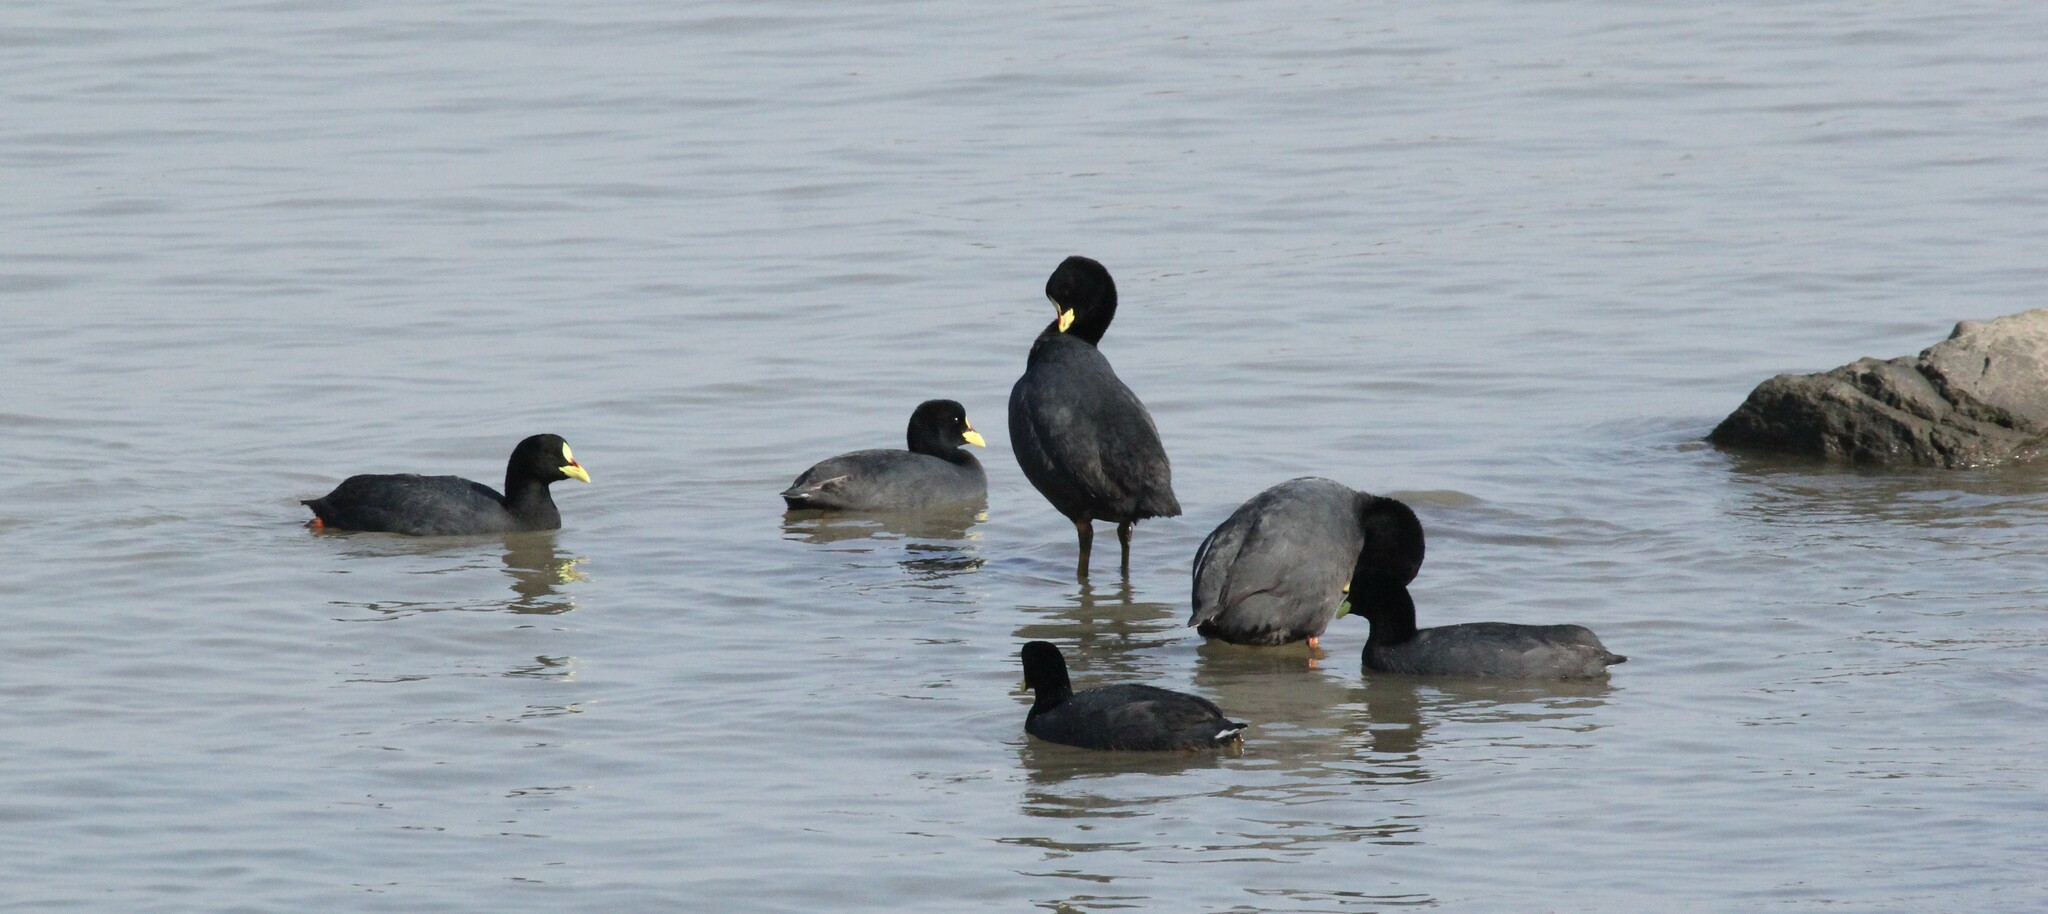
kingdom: Animalia
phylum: Chordata
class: Aves
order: Gruiformes
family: Rallidae
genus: Fulica
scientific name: Fulica armillata
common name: Red-gartered coot
